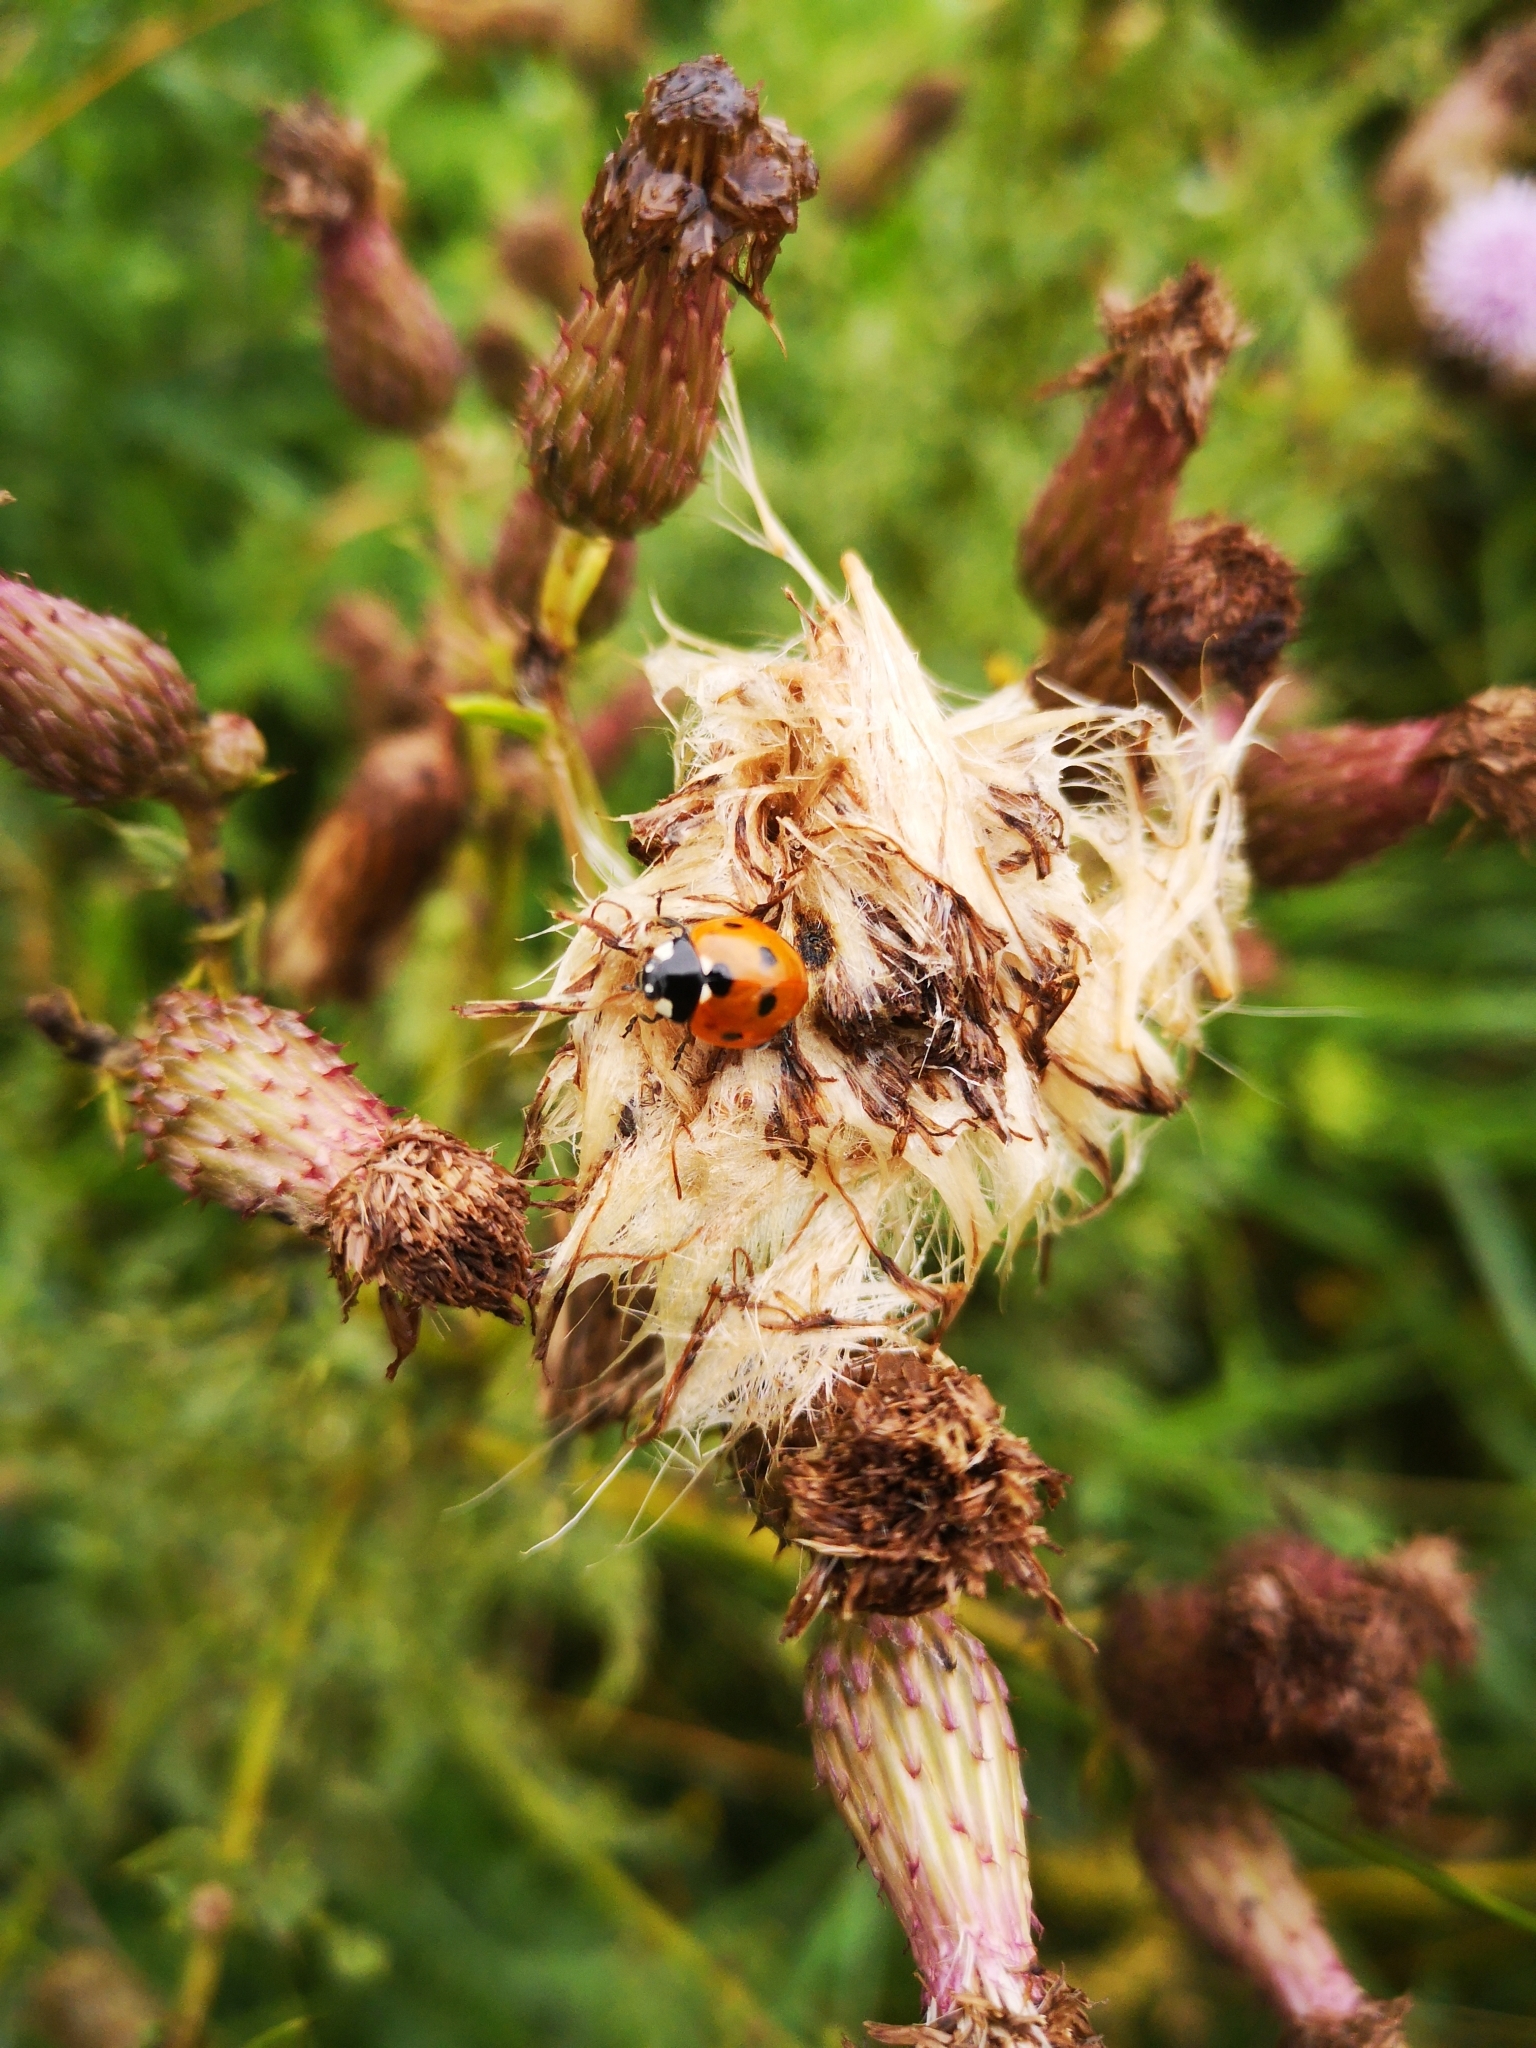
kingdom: Animalia
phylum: Arthropoda
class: Insecta
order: Coleoptera
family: Coccinellidae
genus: Coccinella
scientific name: Coccinella septempunctata
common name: Sevenspotted lady beetle
